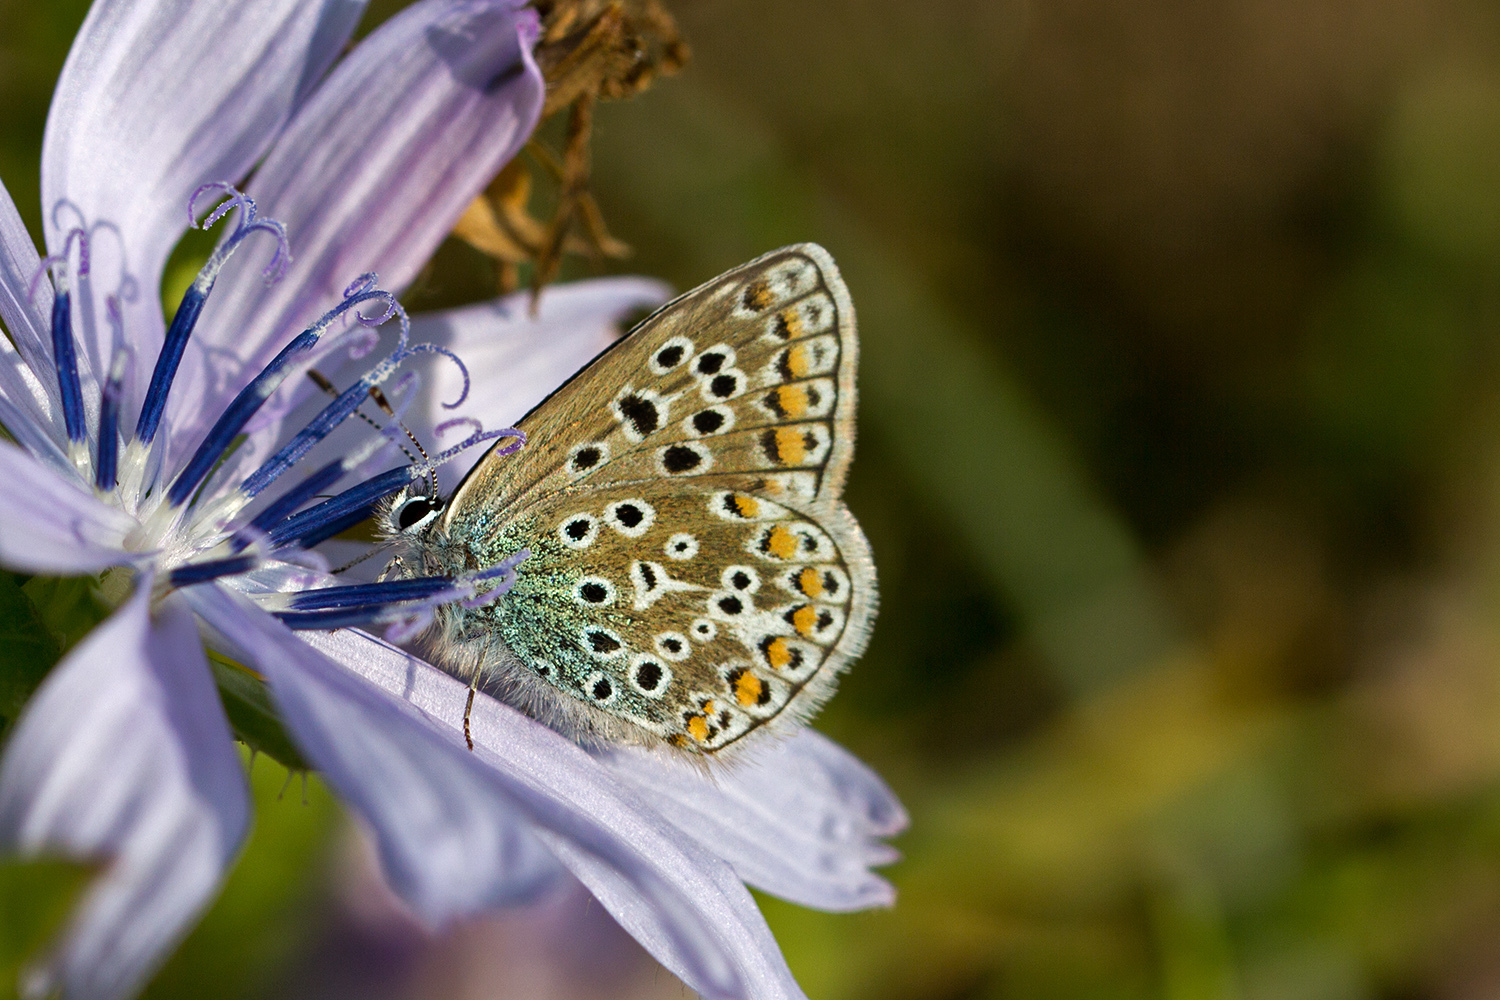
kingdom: Animalia
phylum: Arthropoda
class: Insecta
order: Lepidoptera
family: Lycaenidae
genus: Polyommatus
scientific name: Polyommatus icarus
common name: Common blue
